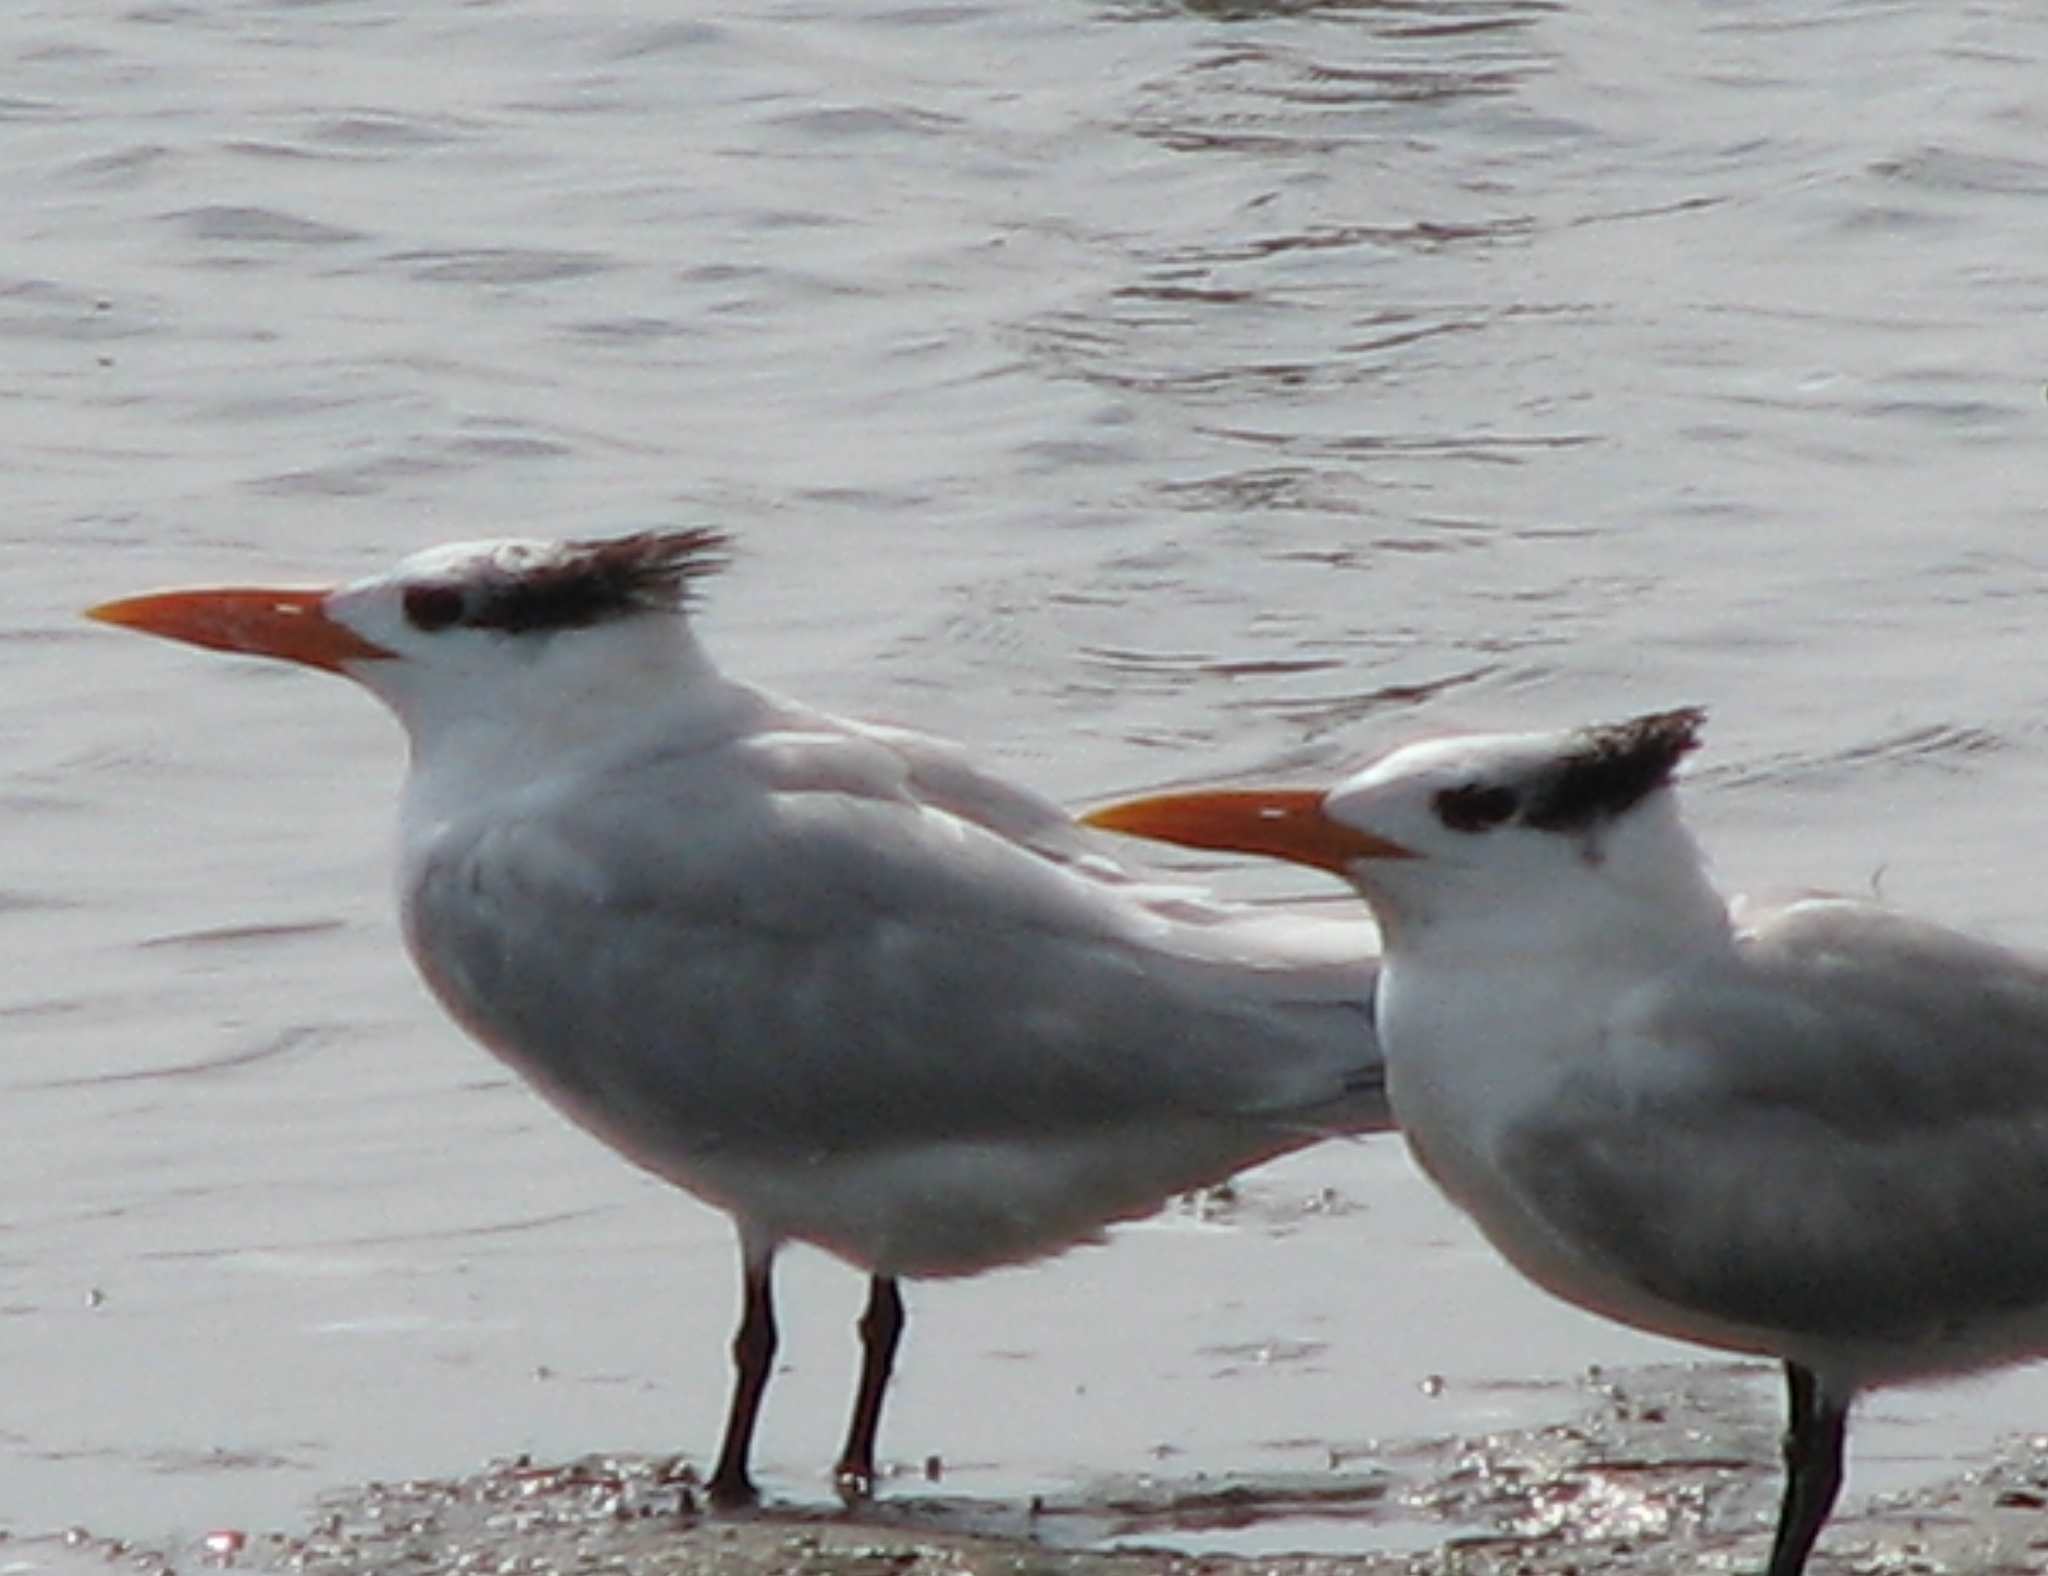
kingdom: Animalia
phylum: Chordata
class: Aves
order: Charadriiformes
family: Laridae
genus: Thalasseus
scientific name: Thalasseus maximus
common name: Royal tern
